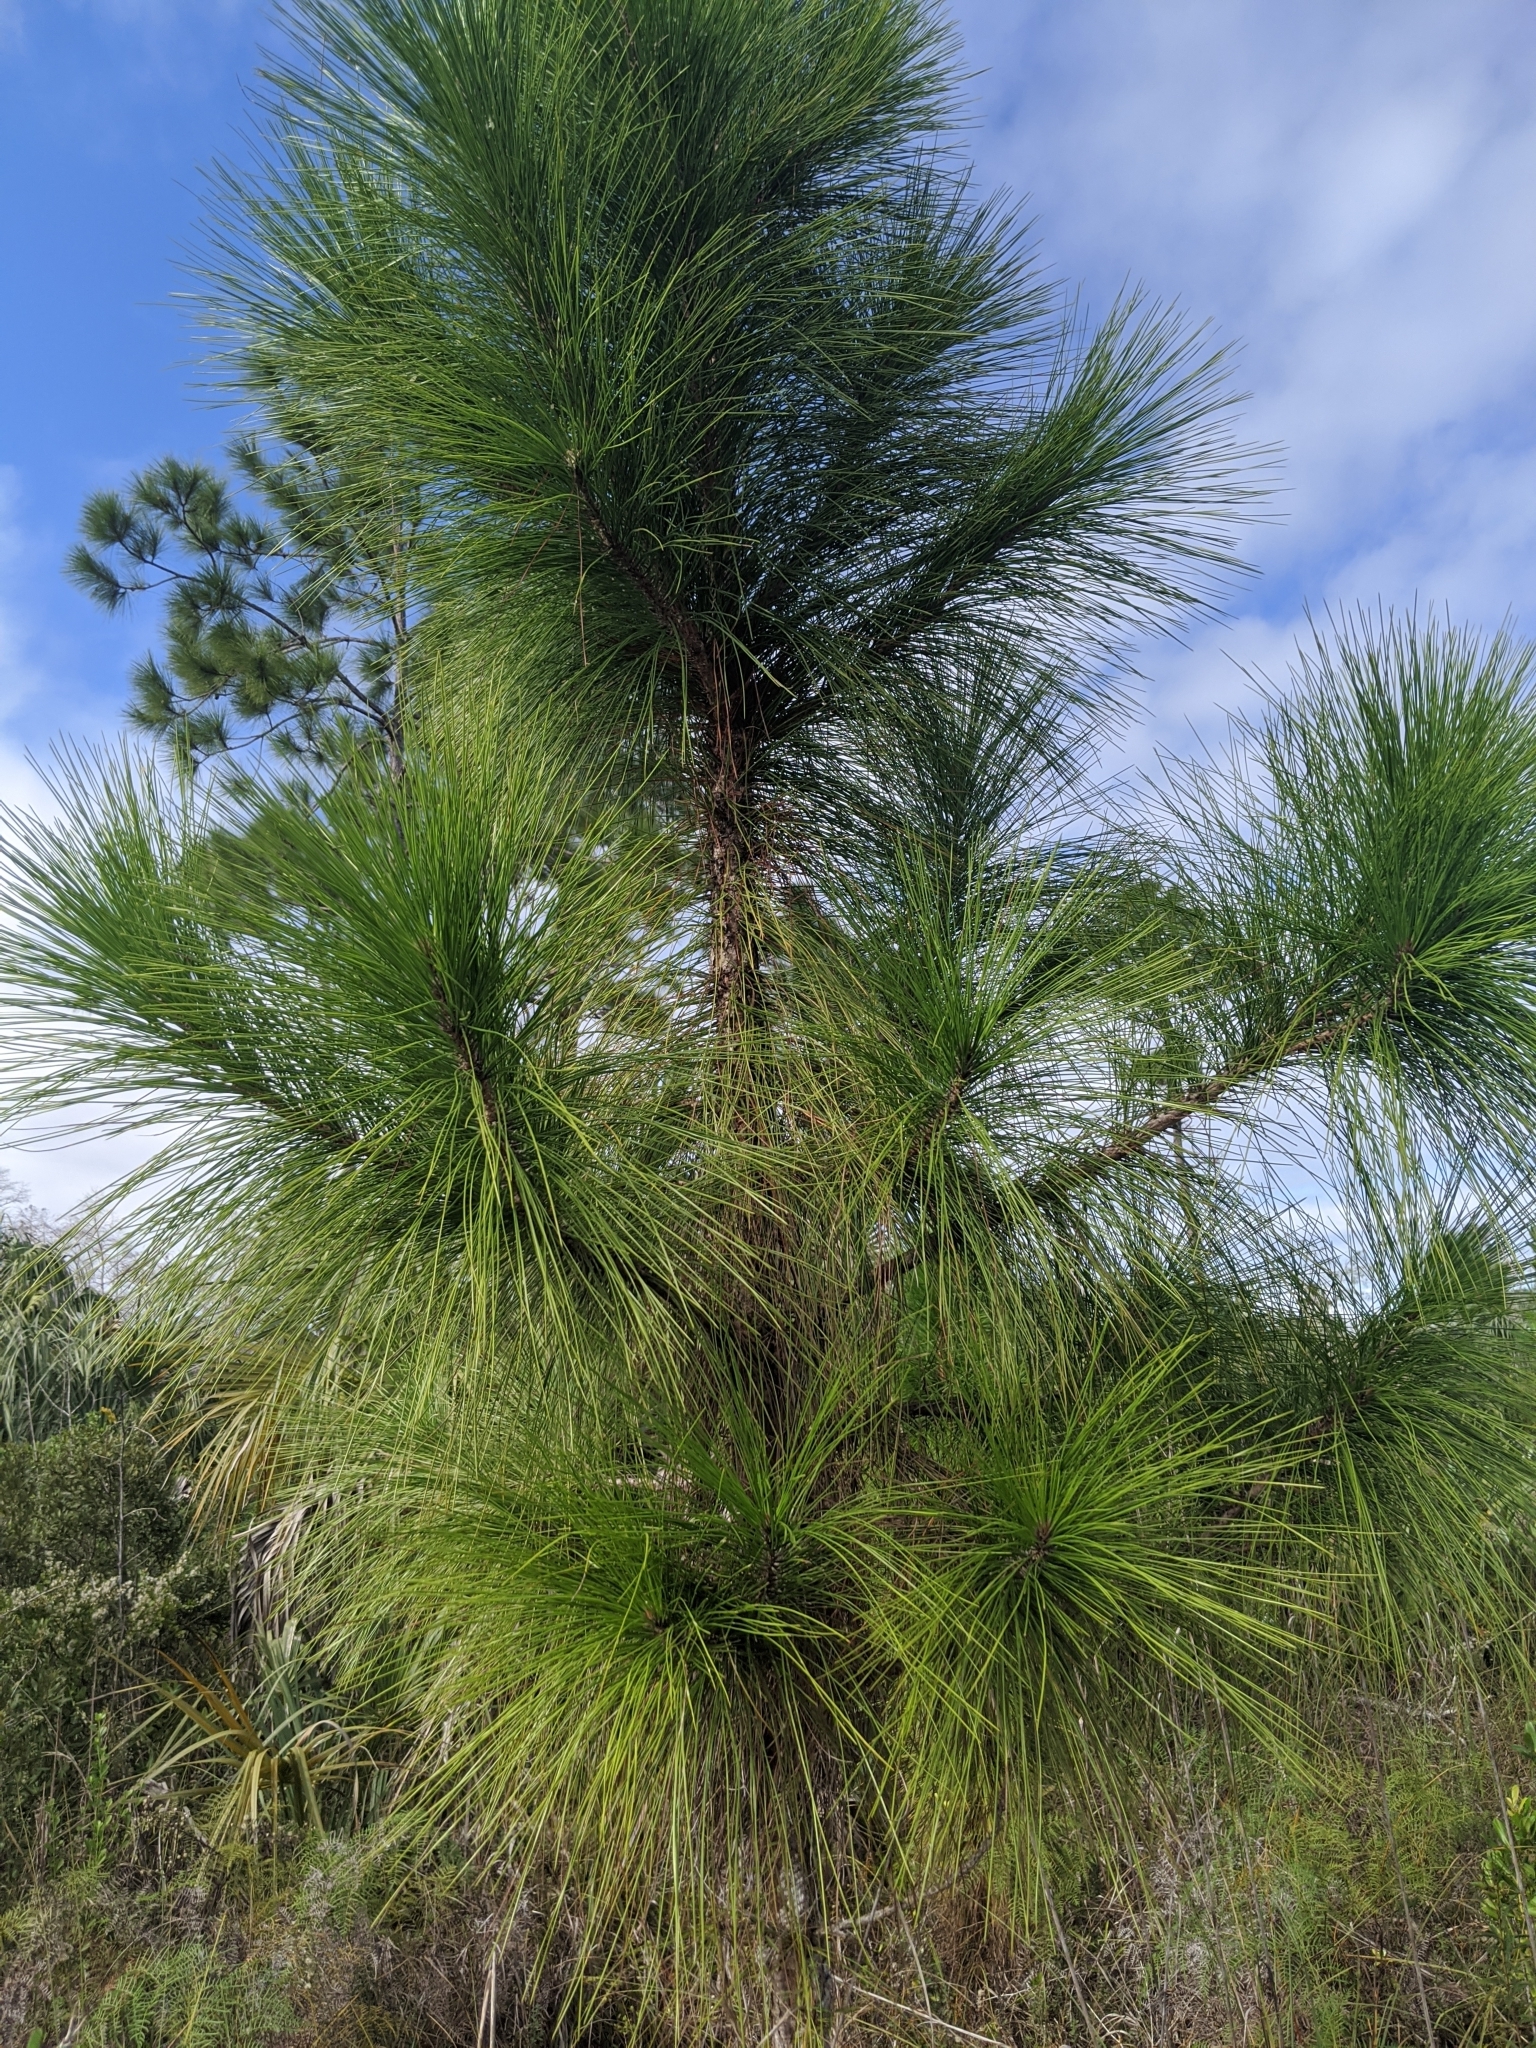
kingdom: Plantae
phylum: Tracheophyta
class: Pinopsida
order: Pinales
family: Pinaceae
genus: Pinus
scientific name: Pinus elliottii
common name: Slash pine
